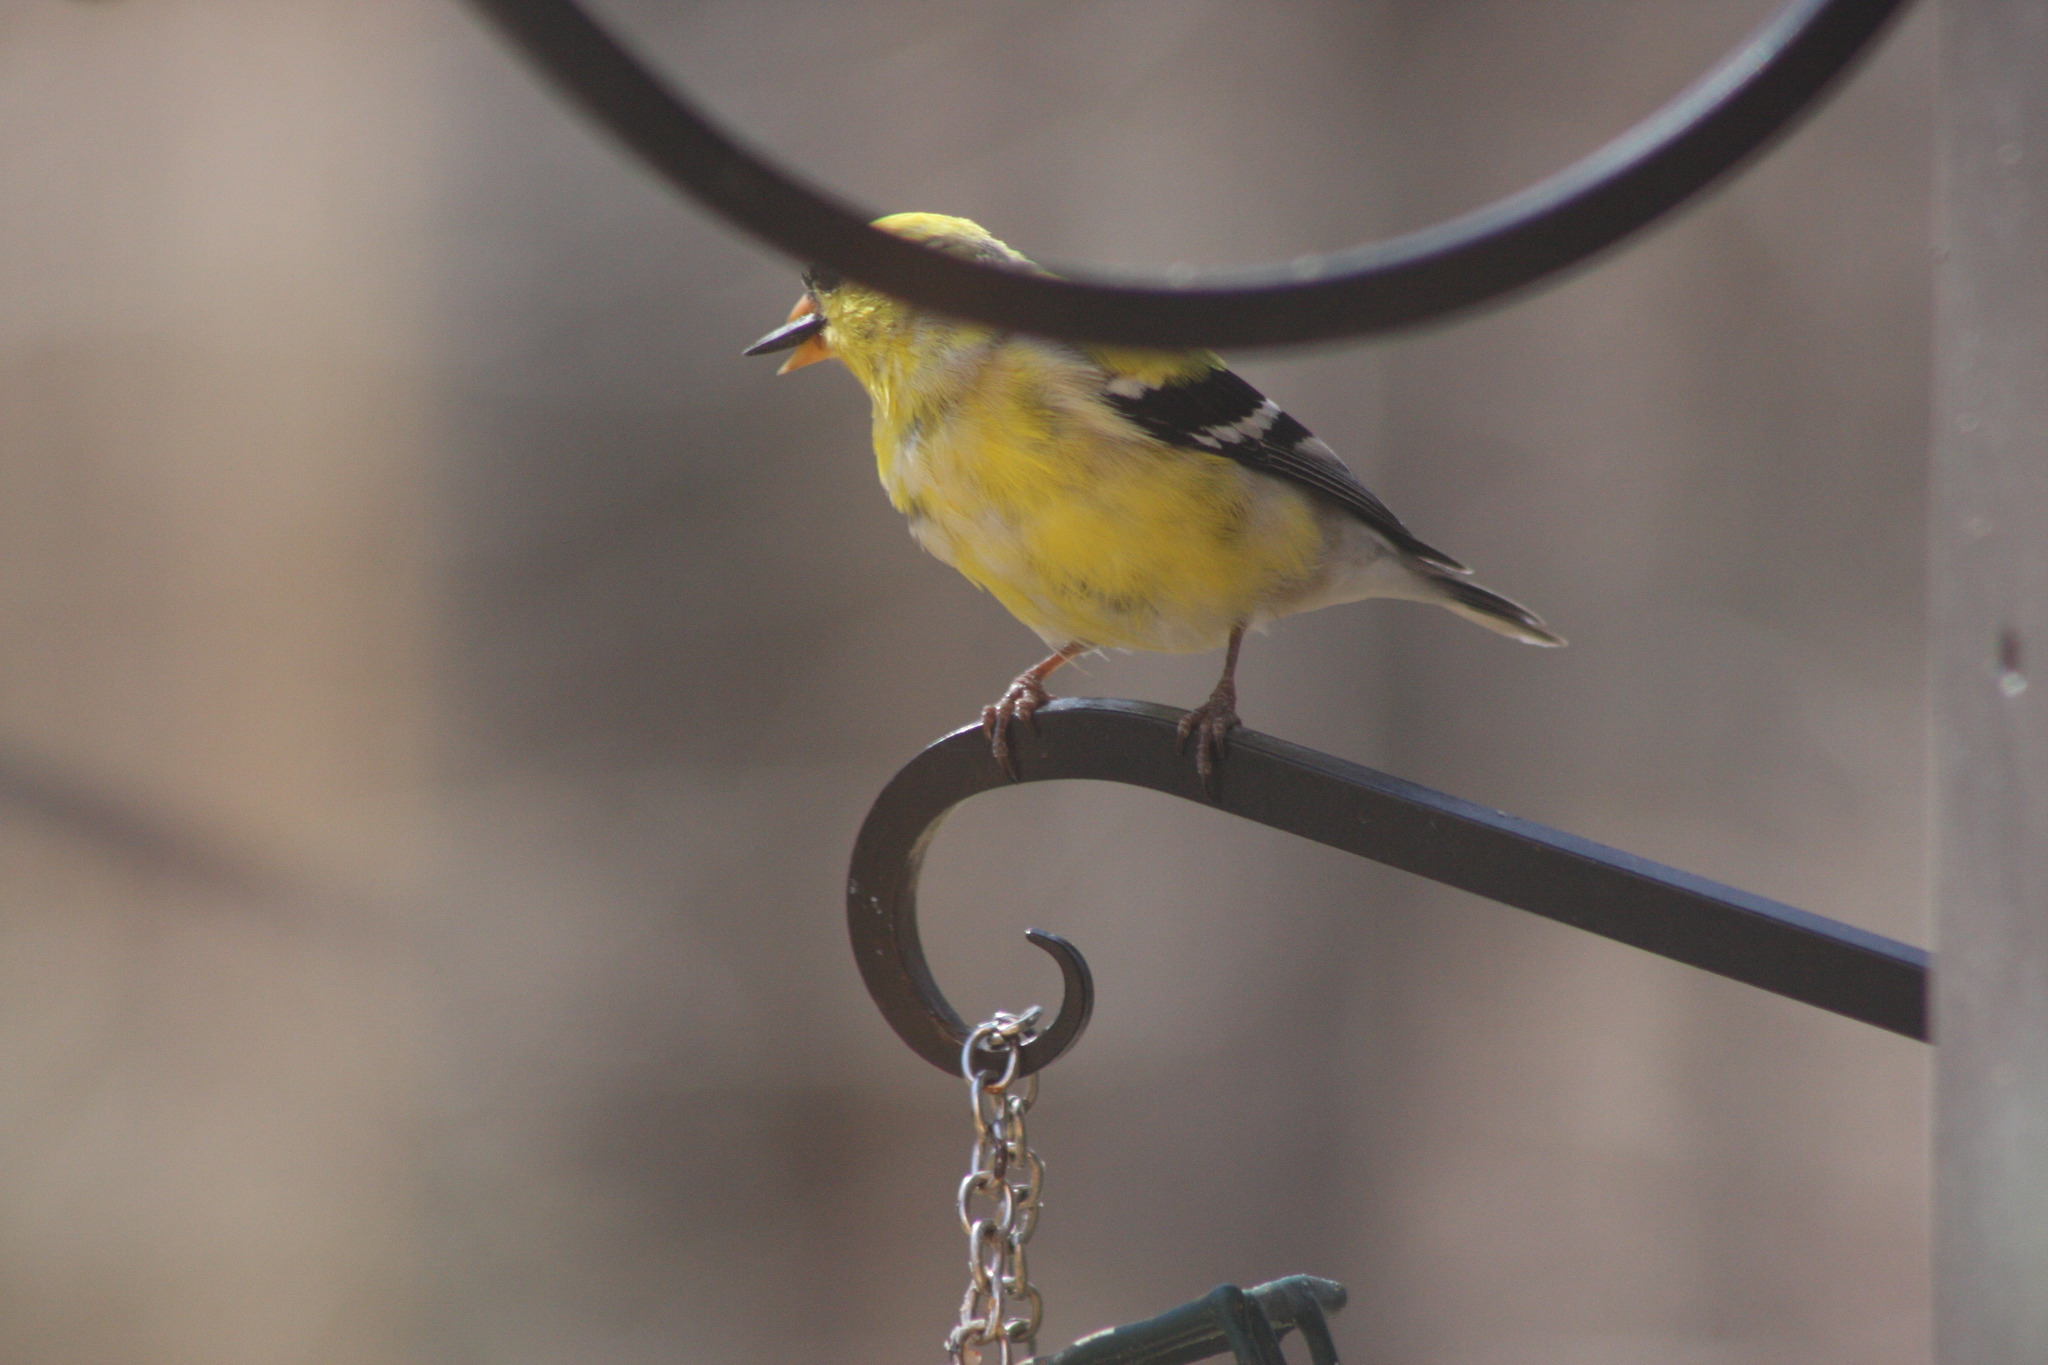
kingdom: Animalia
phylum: Chordata
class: Aves
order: Passeriformes
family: Fringillidae
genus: Spinus
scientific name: Spinus tristis
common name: American goldfinch
